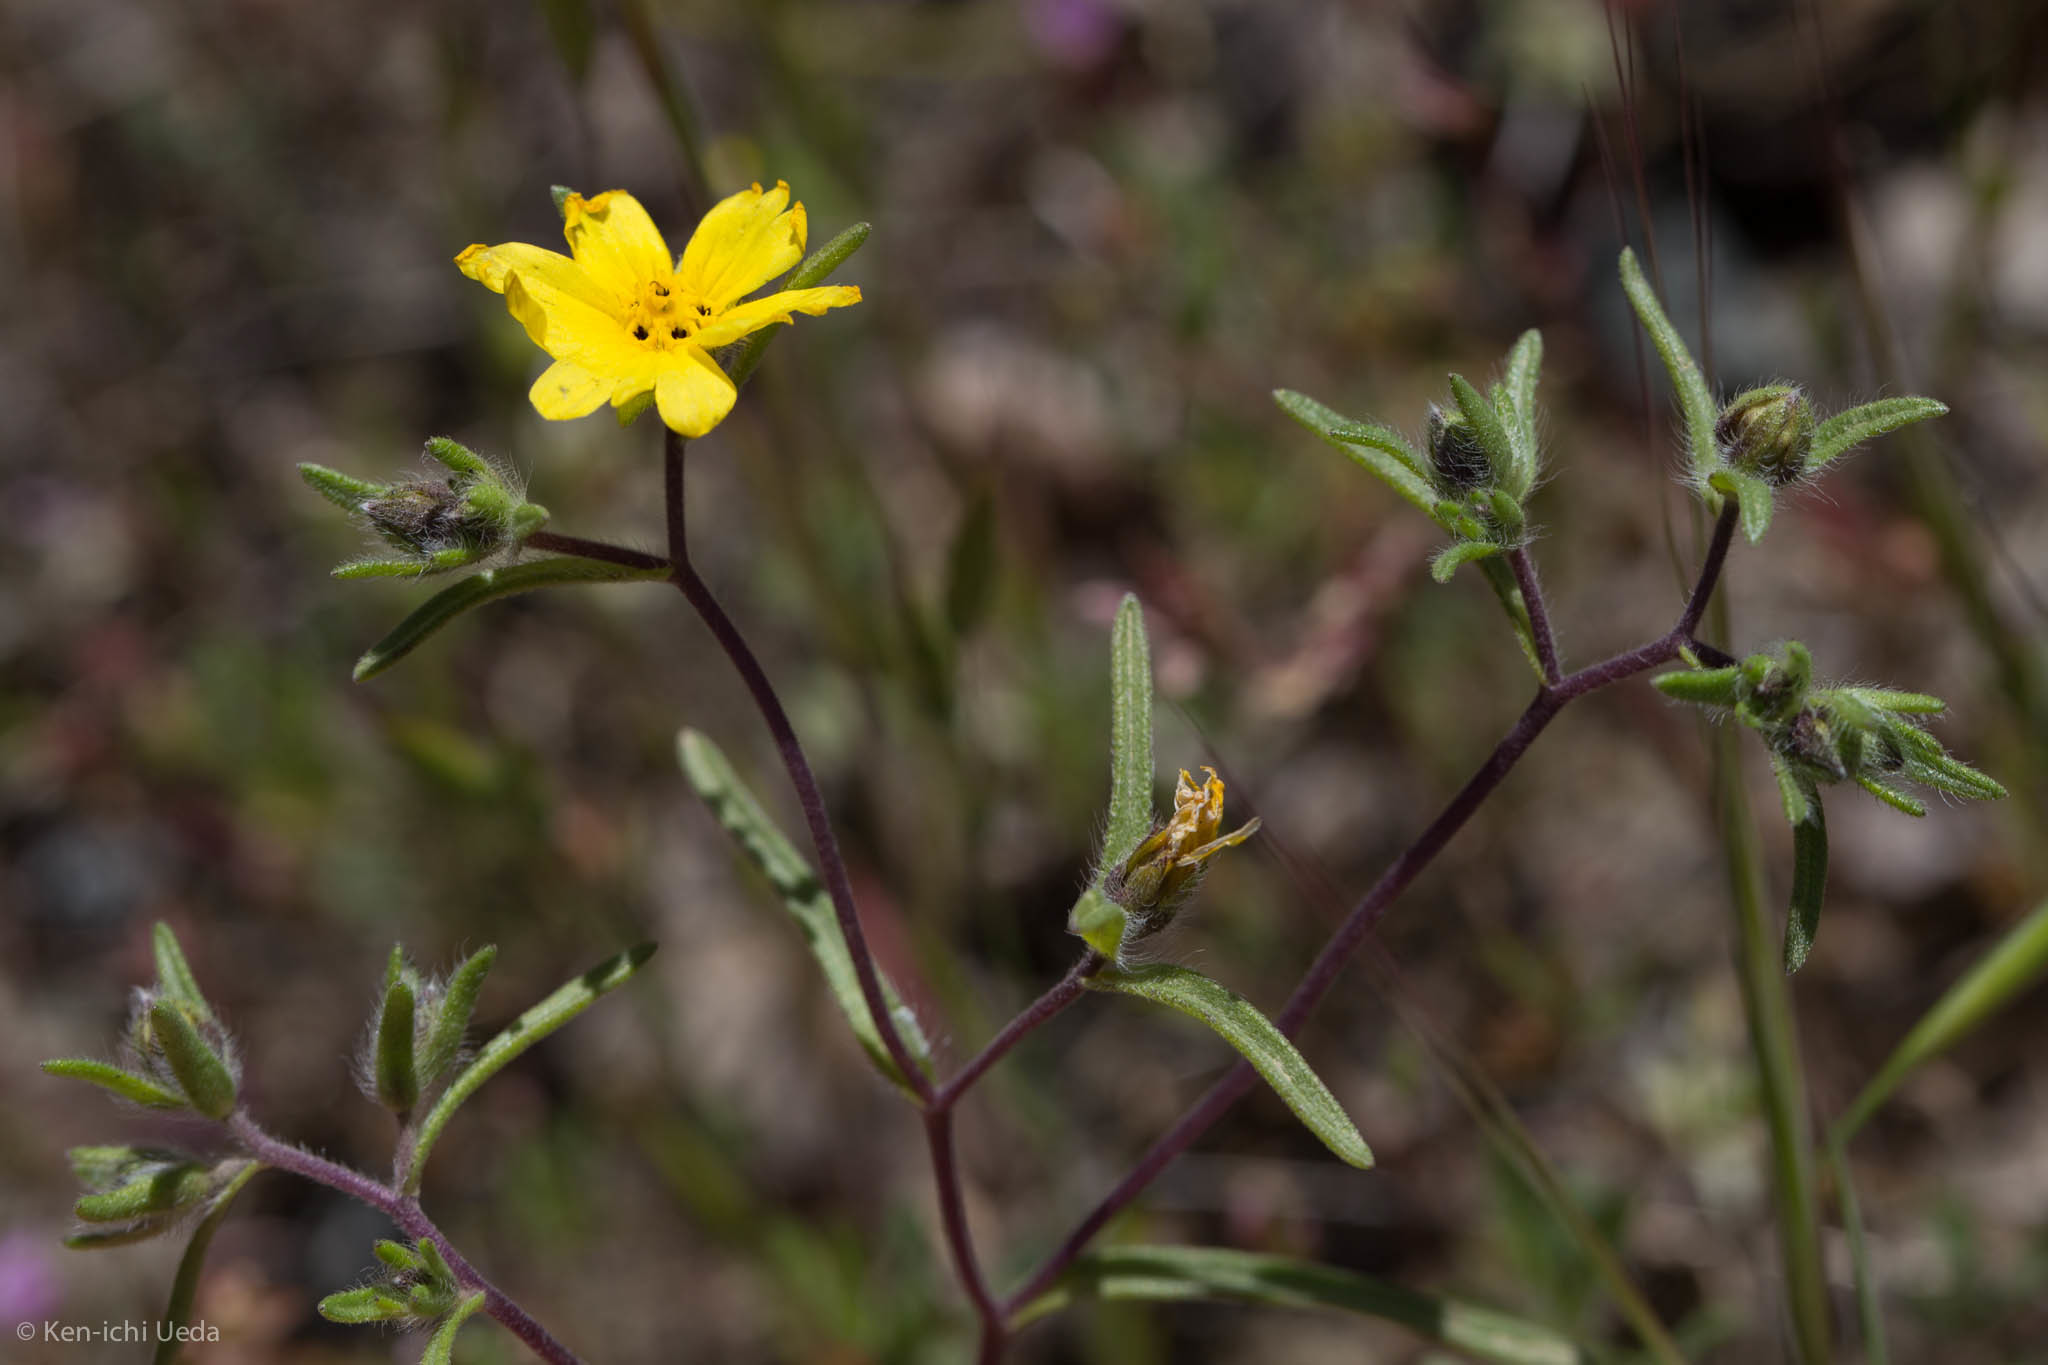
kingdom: Plantae
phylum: Tracheophyta
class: Magnoliopsida
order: Asterales
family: Asteraceae
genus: Lagophylla
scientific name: Lagophylla minor
